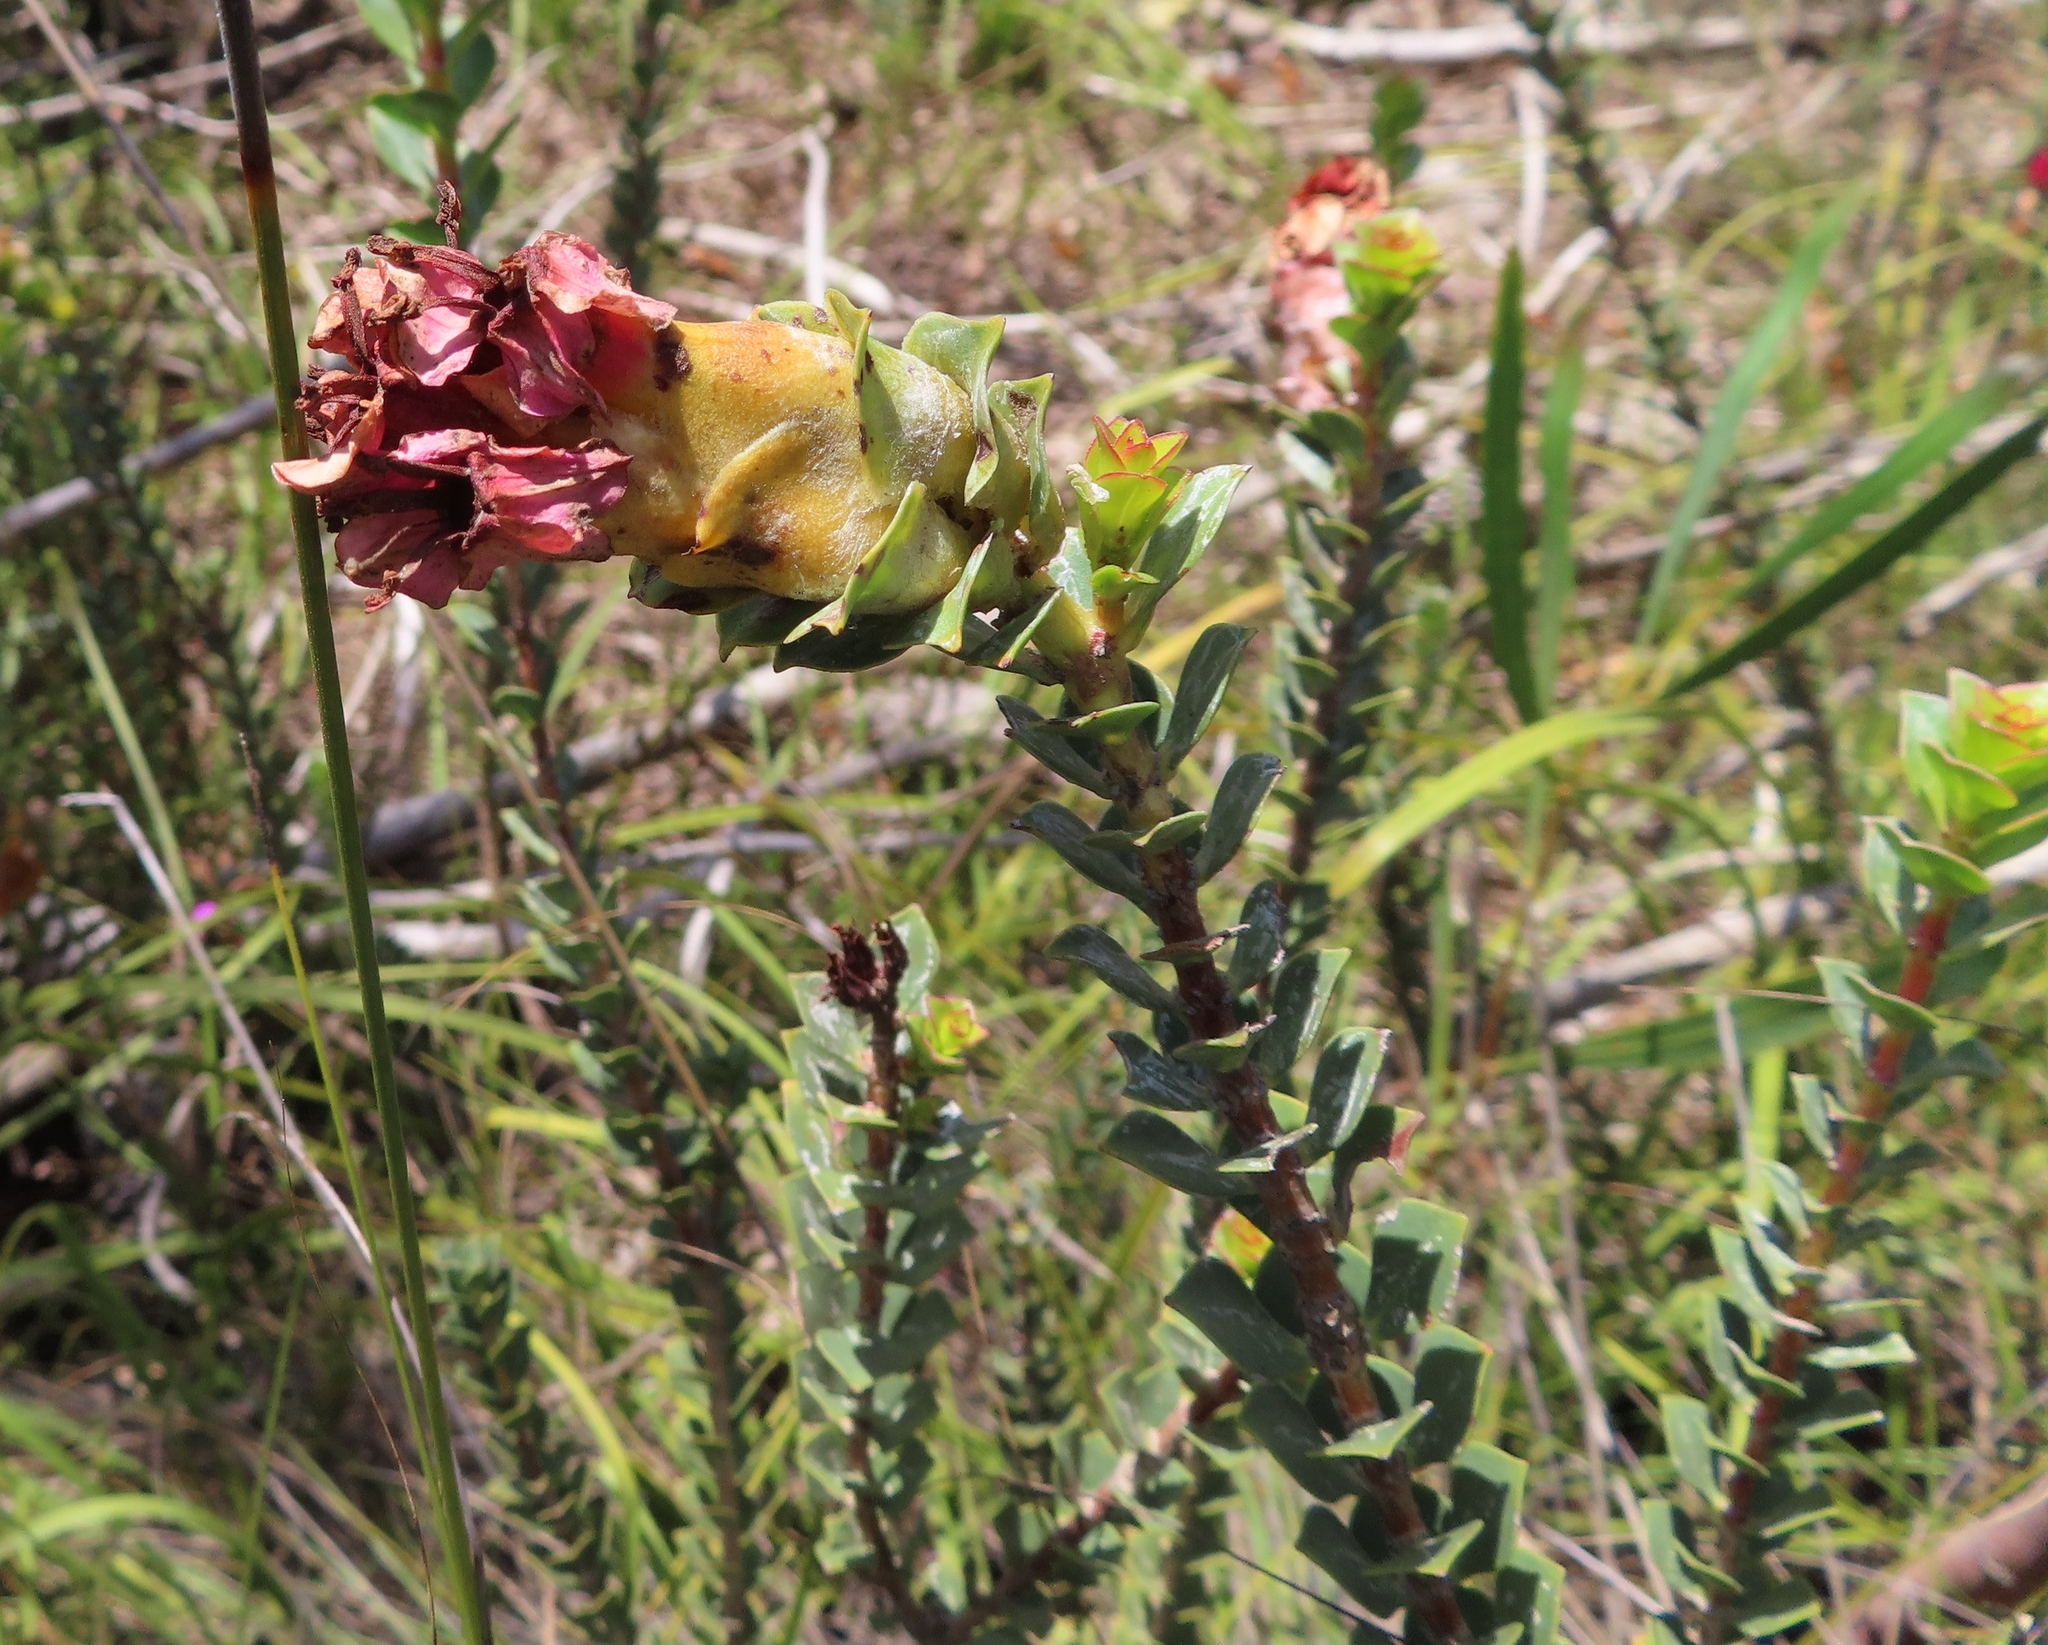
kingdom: Plantae
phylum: Tracheophyta
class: Magnoliopsida
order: Myrtales
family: Penaeaceae
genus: Saltera
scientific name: Saltera sarcocolla
